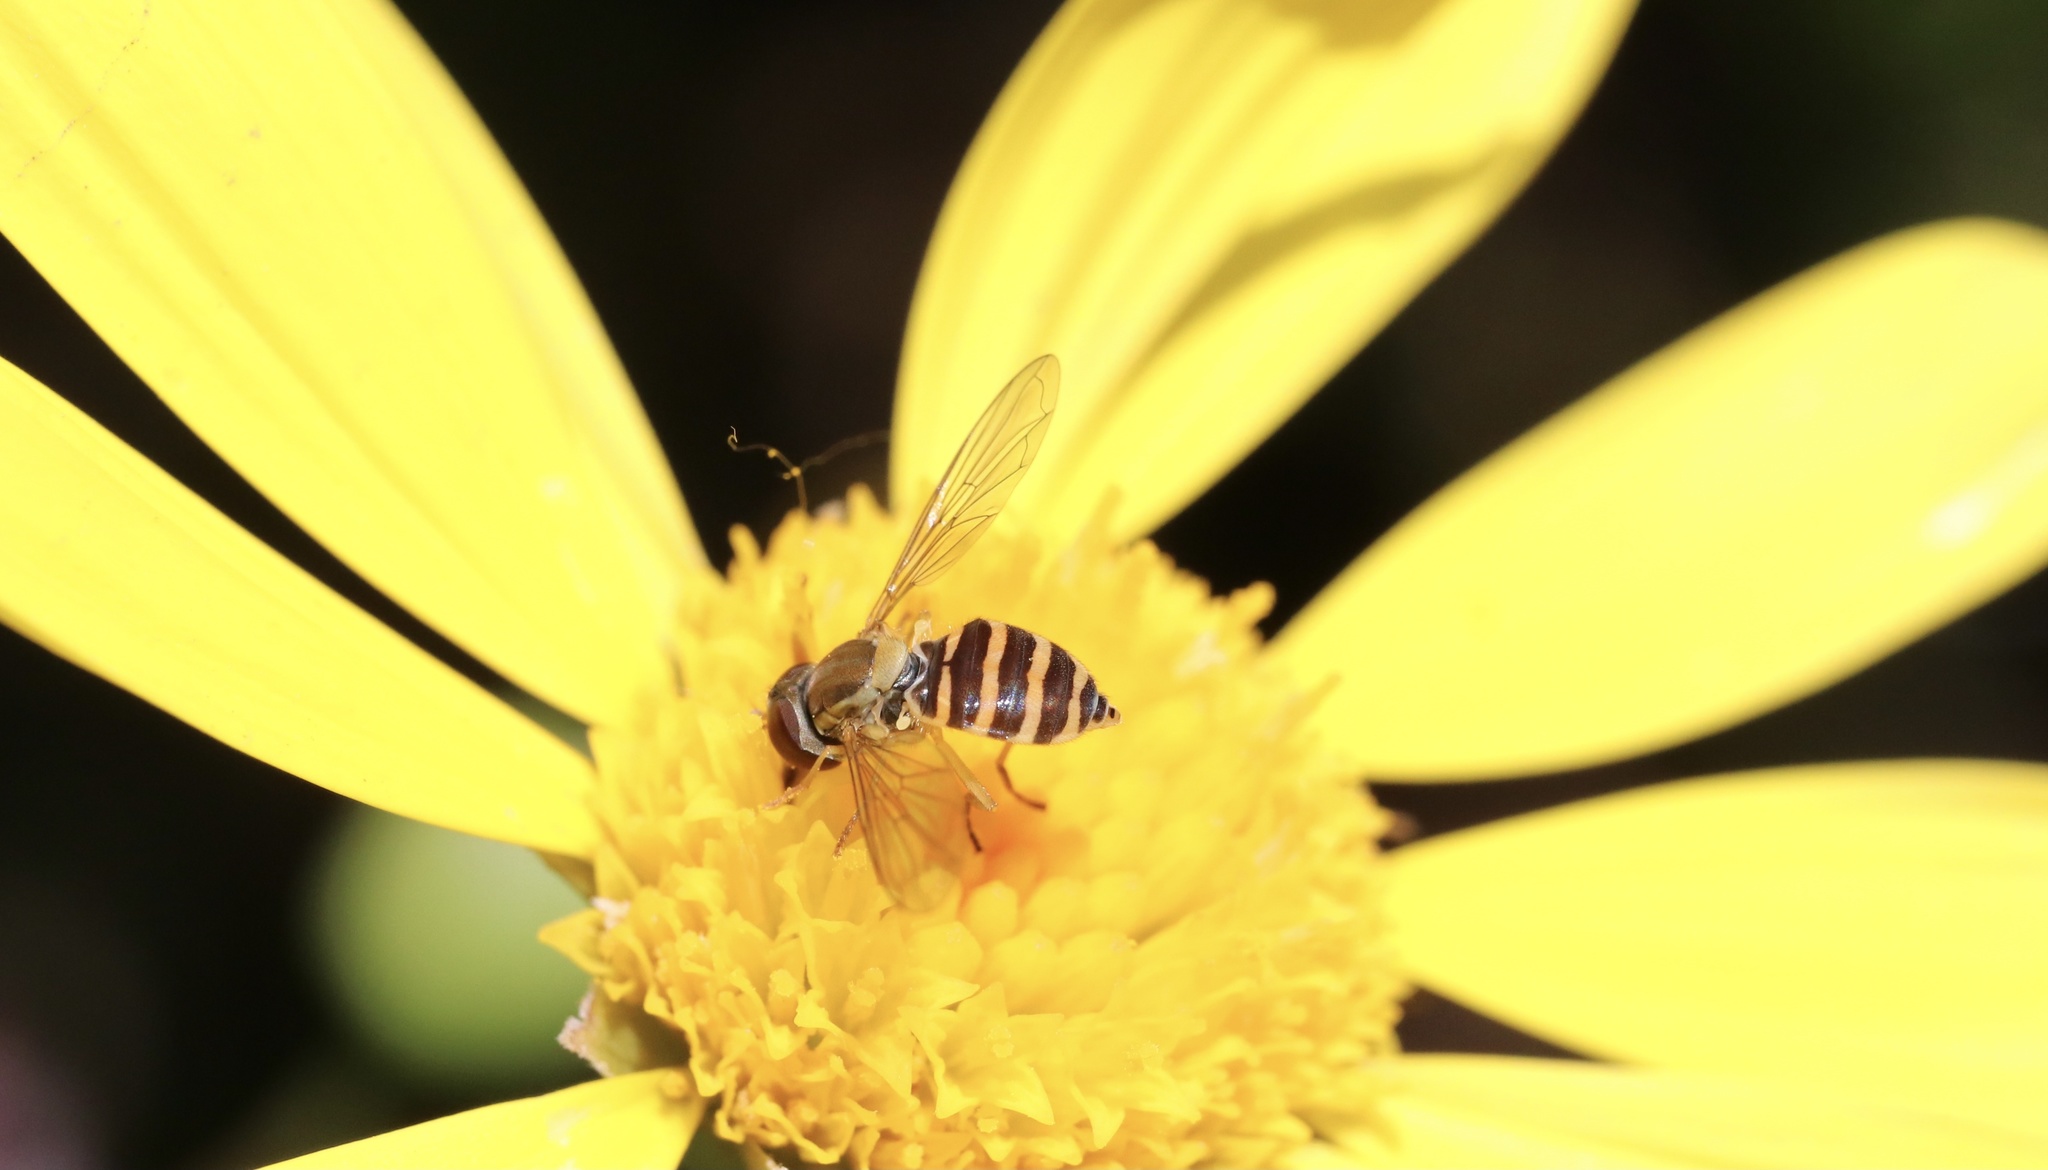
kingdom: Animalia
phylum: Arthropoda
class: Insecta
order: Diptera
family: Syrphidae
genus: Toxomerus
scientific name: Toxomerus calceolatus
